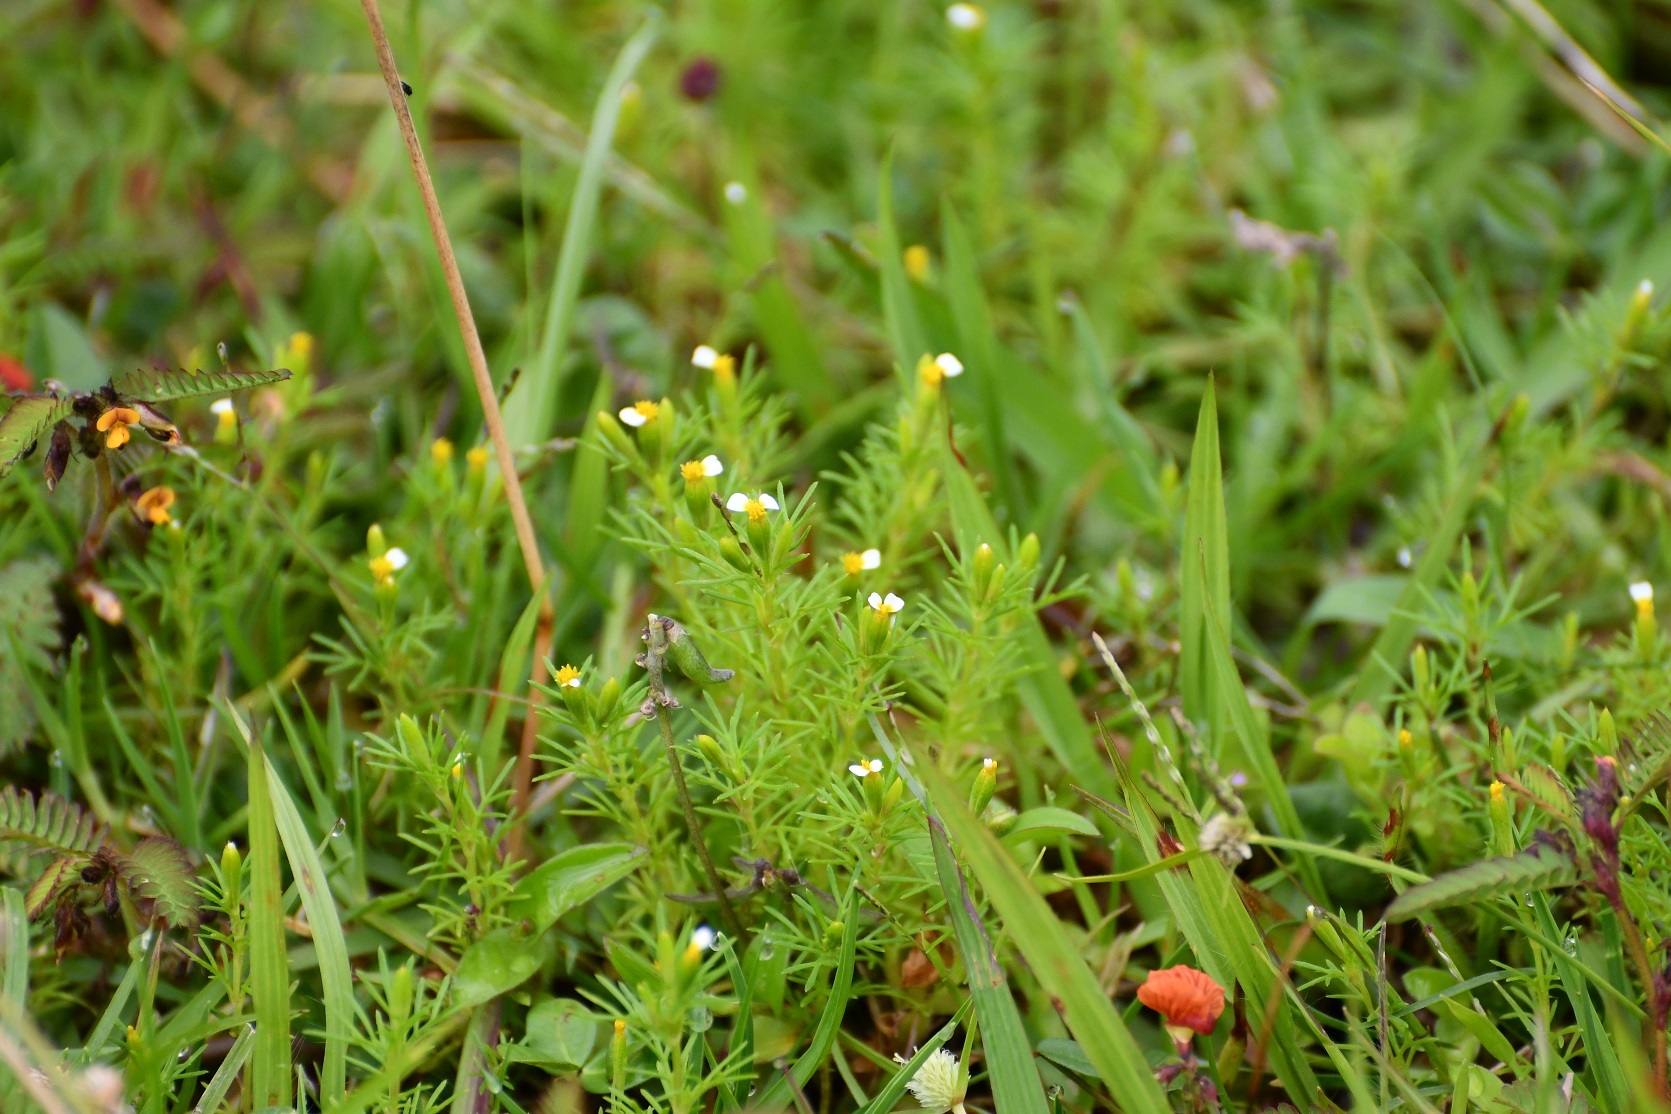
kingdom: Plantae
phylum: Tracheophyta
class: Magnoliopsida
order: Asterales
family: Asteraceae
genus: Tagetes
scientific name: Tagetes filifolia
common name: Lesser marigold
